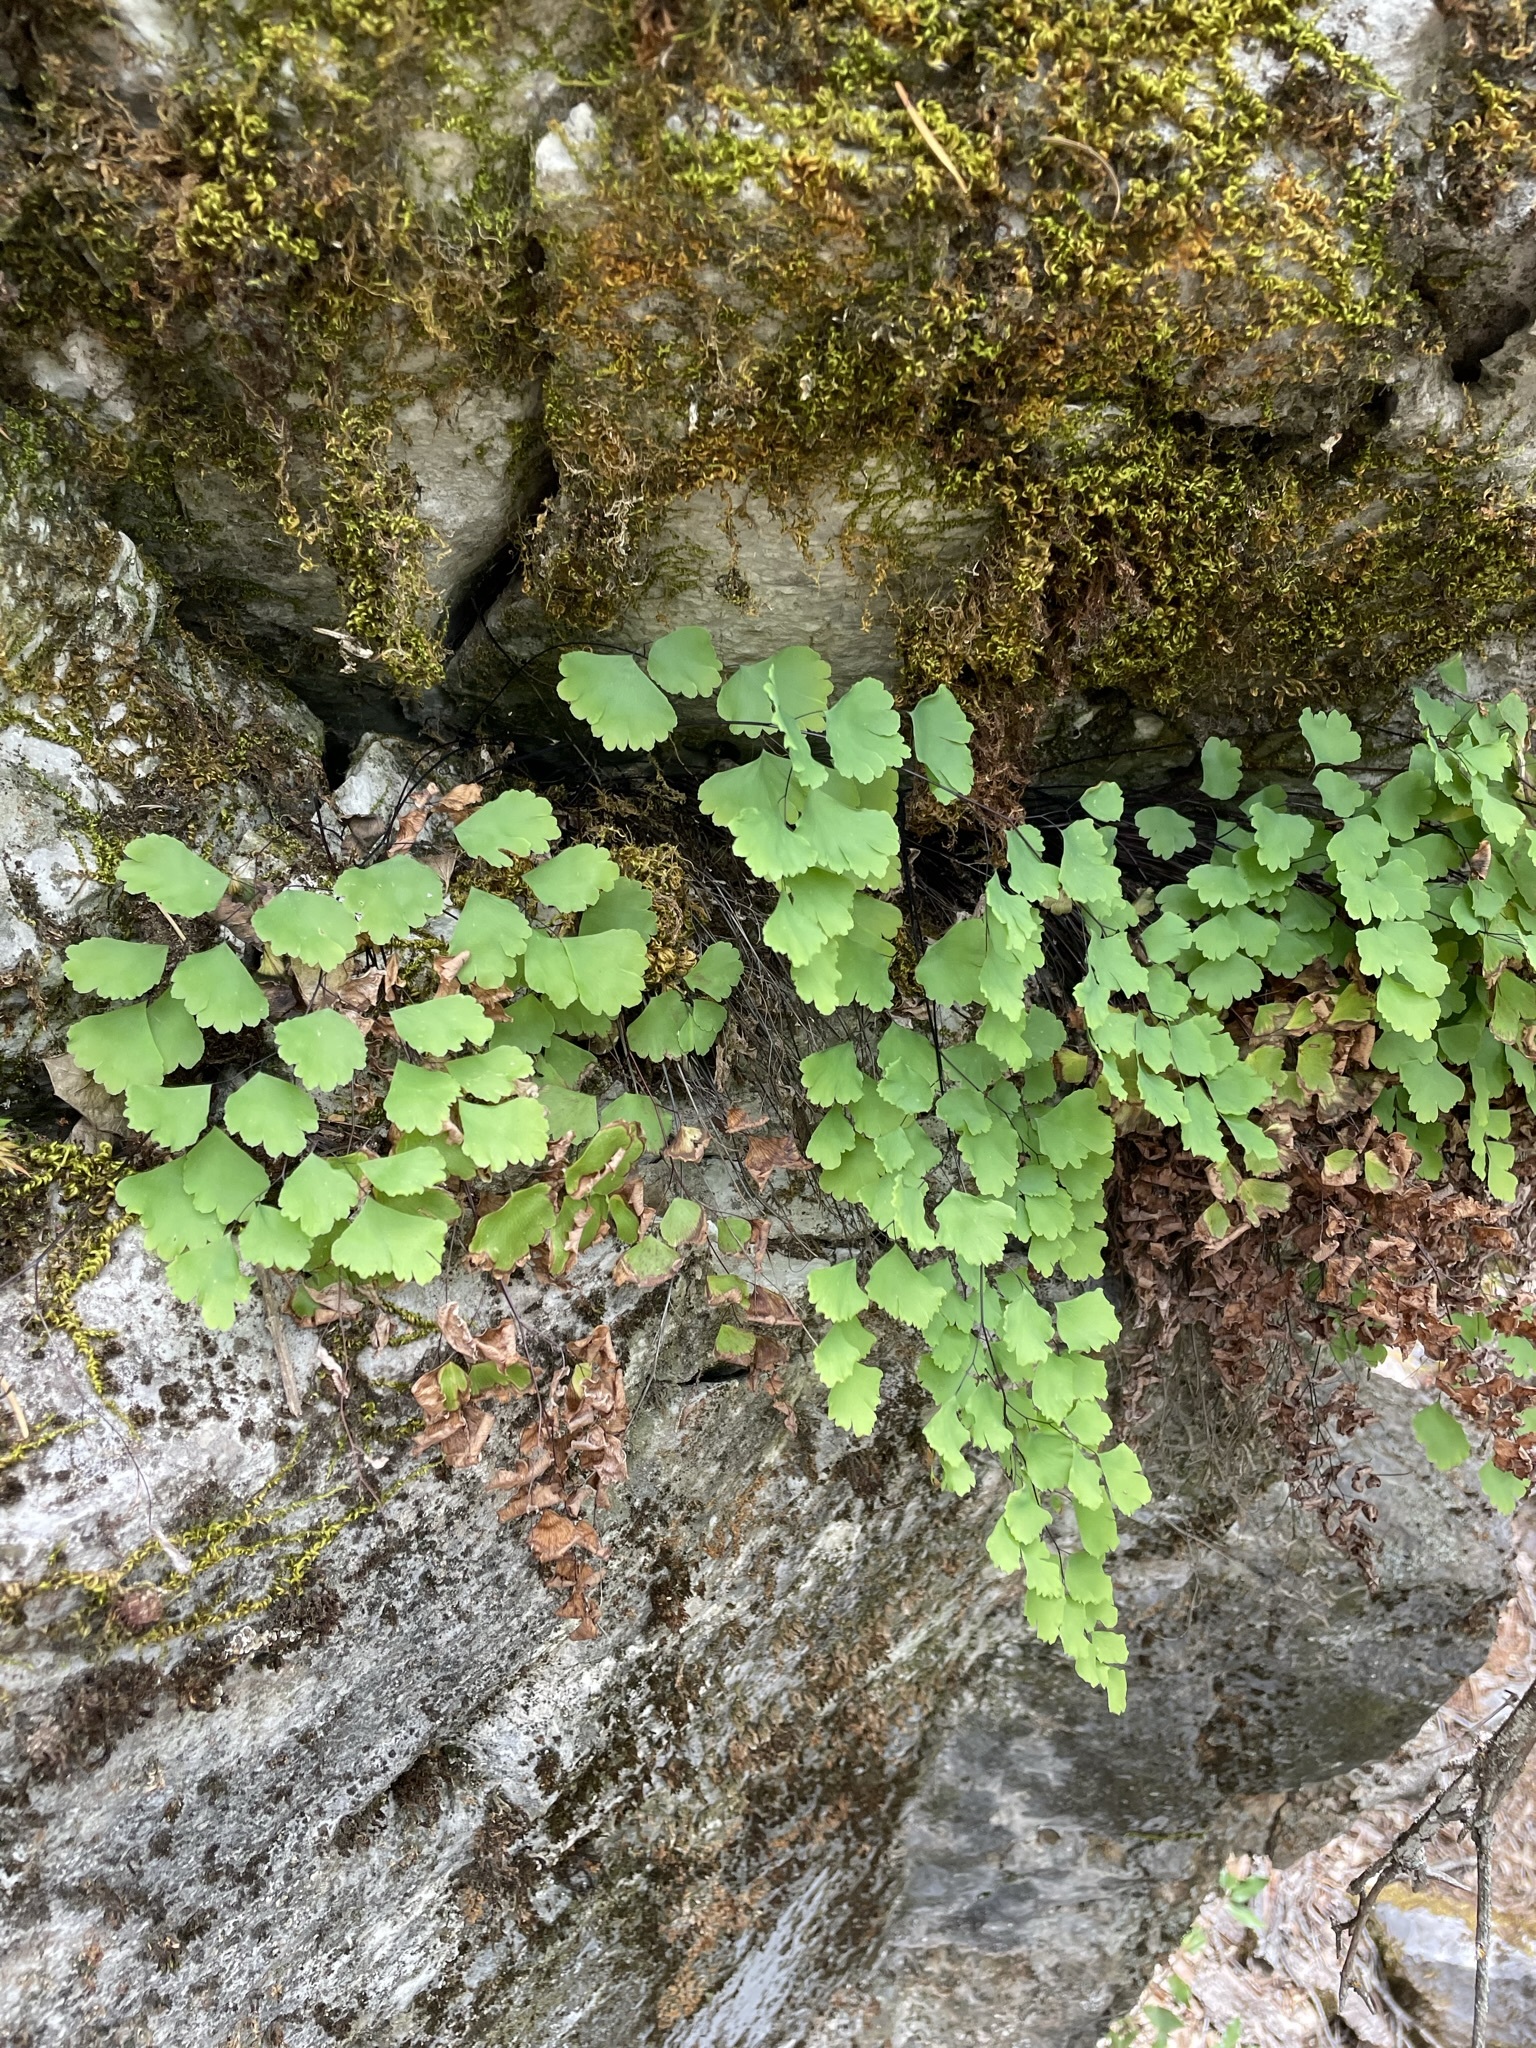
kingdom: Plantae
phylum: Tracheophyta
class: Polypodiopsida
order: Polypodiales
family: Pteridaceae
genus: Adiantum
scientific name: Adiantum shastense
